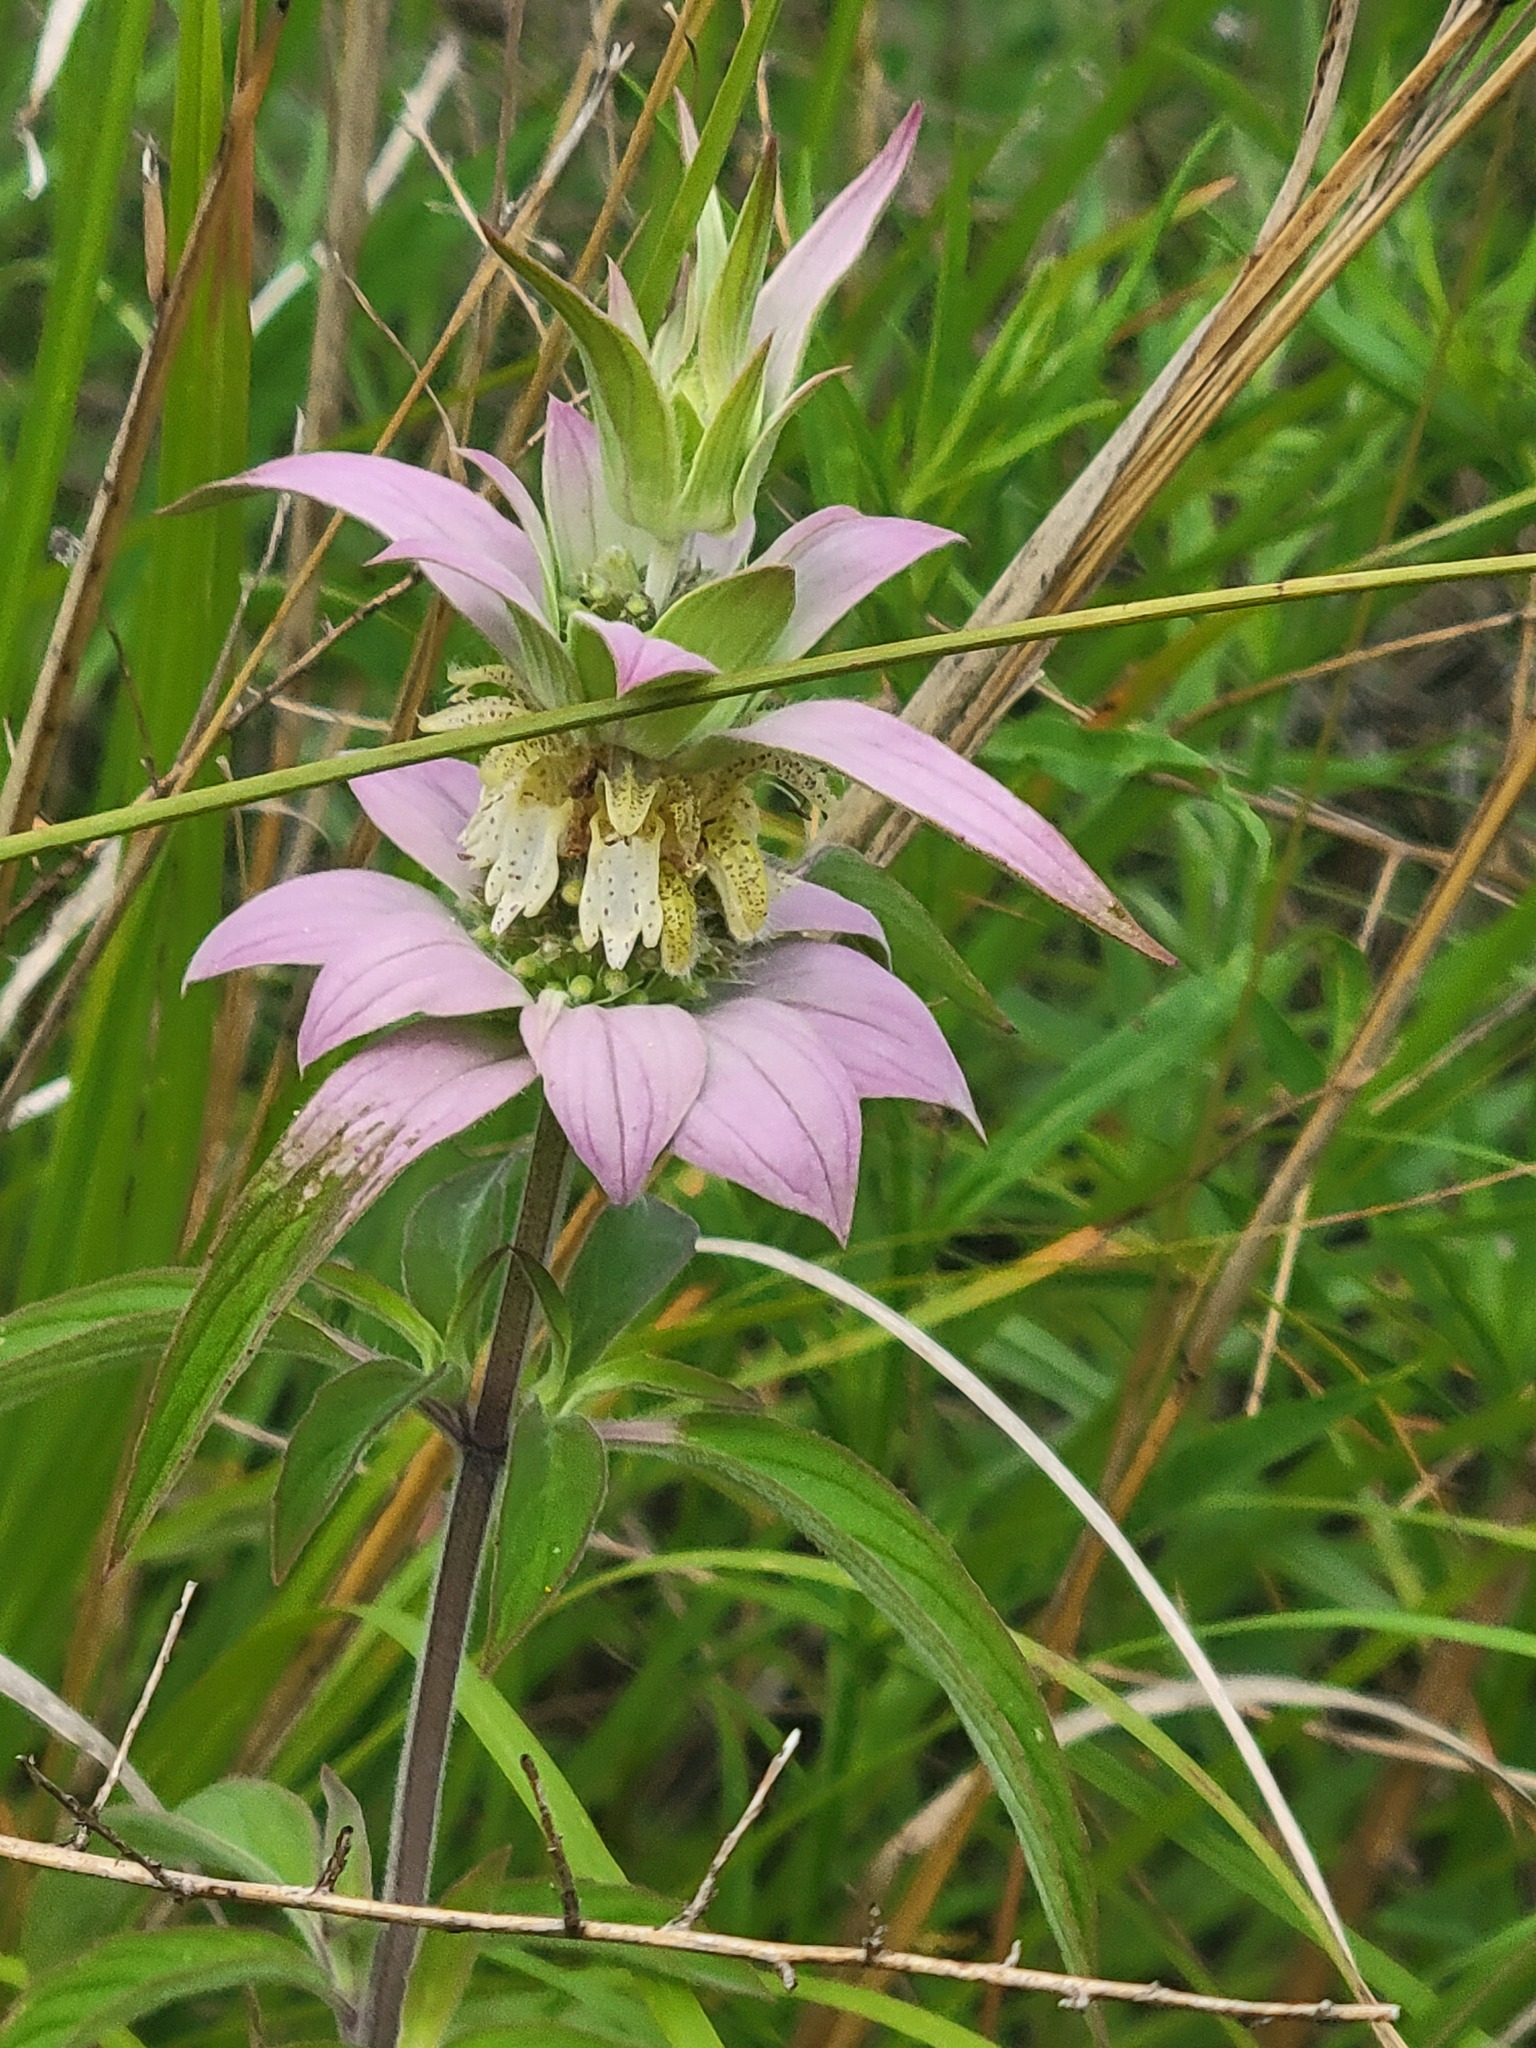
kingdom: Plantae
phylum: Tracheophyta
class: Magnoliopsida
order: Lamiales
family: Lamiaceae
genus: Monarda
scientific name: Monarda punctata
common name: Dotted monarda
